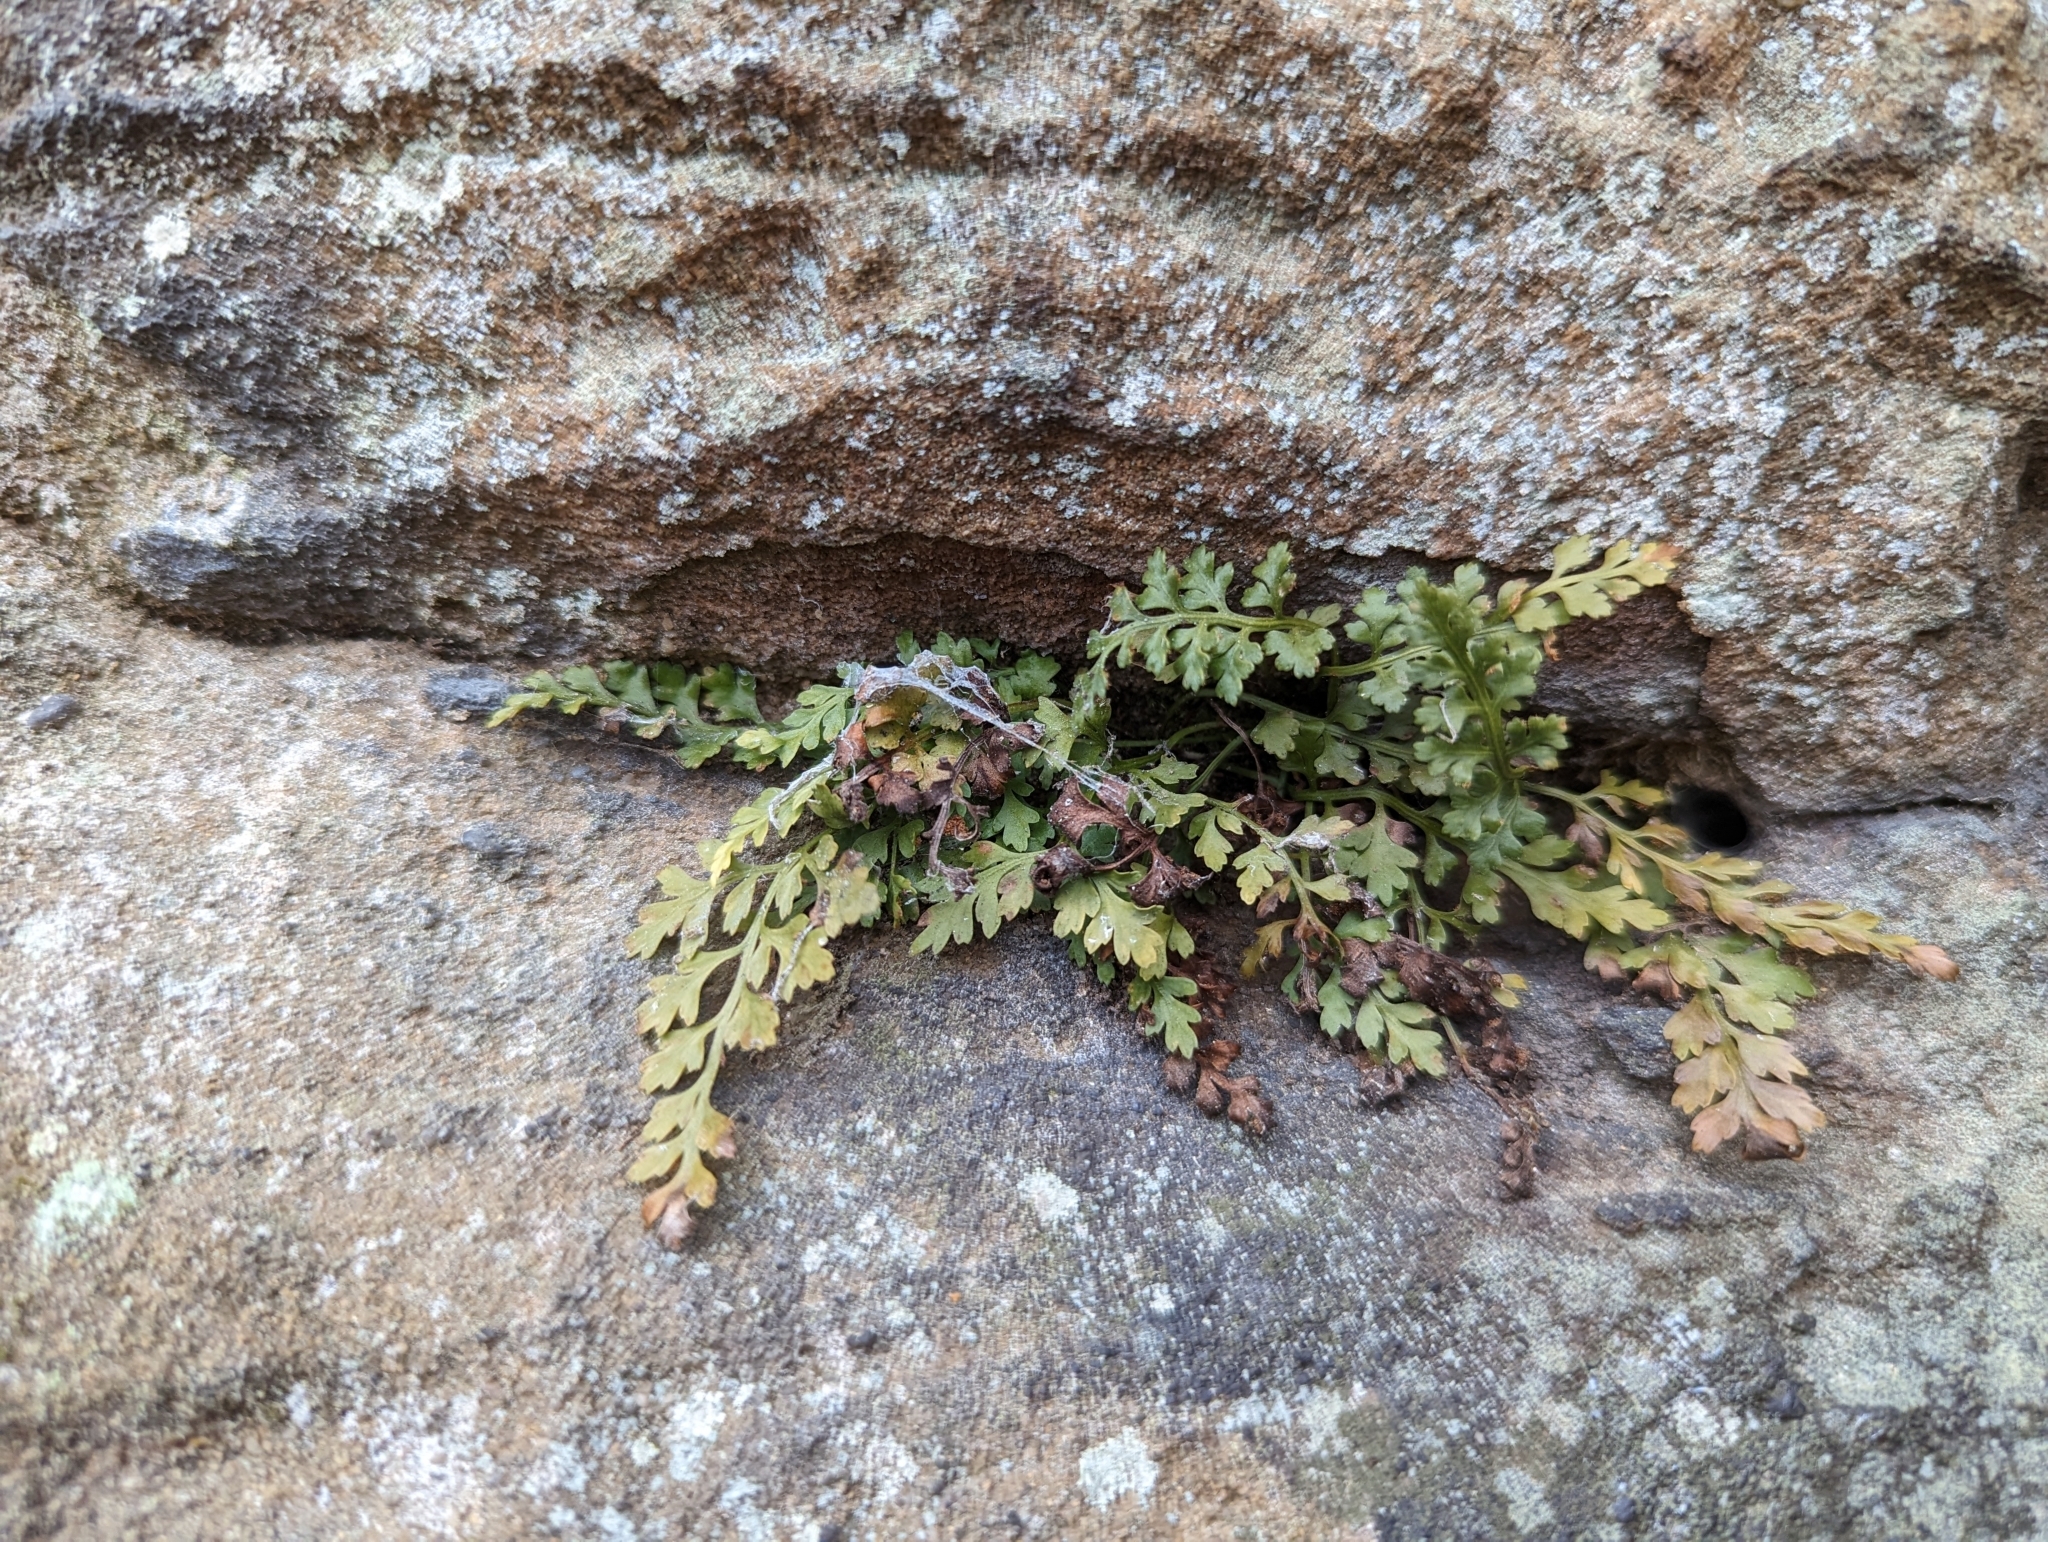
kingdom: Plantae
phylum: Tracheophyta
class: Polypodiopsida
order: Polypodiales
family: Aspleniaceae
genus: Asplenium
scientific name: Asplenium montanum
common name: Mountain spleenwort
